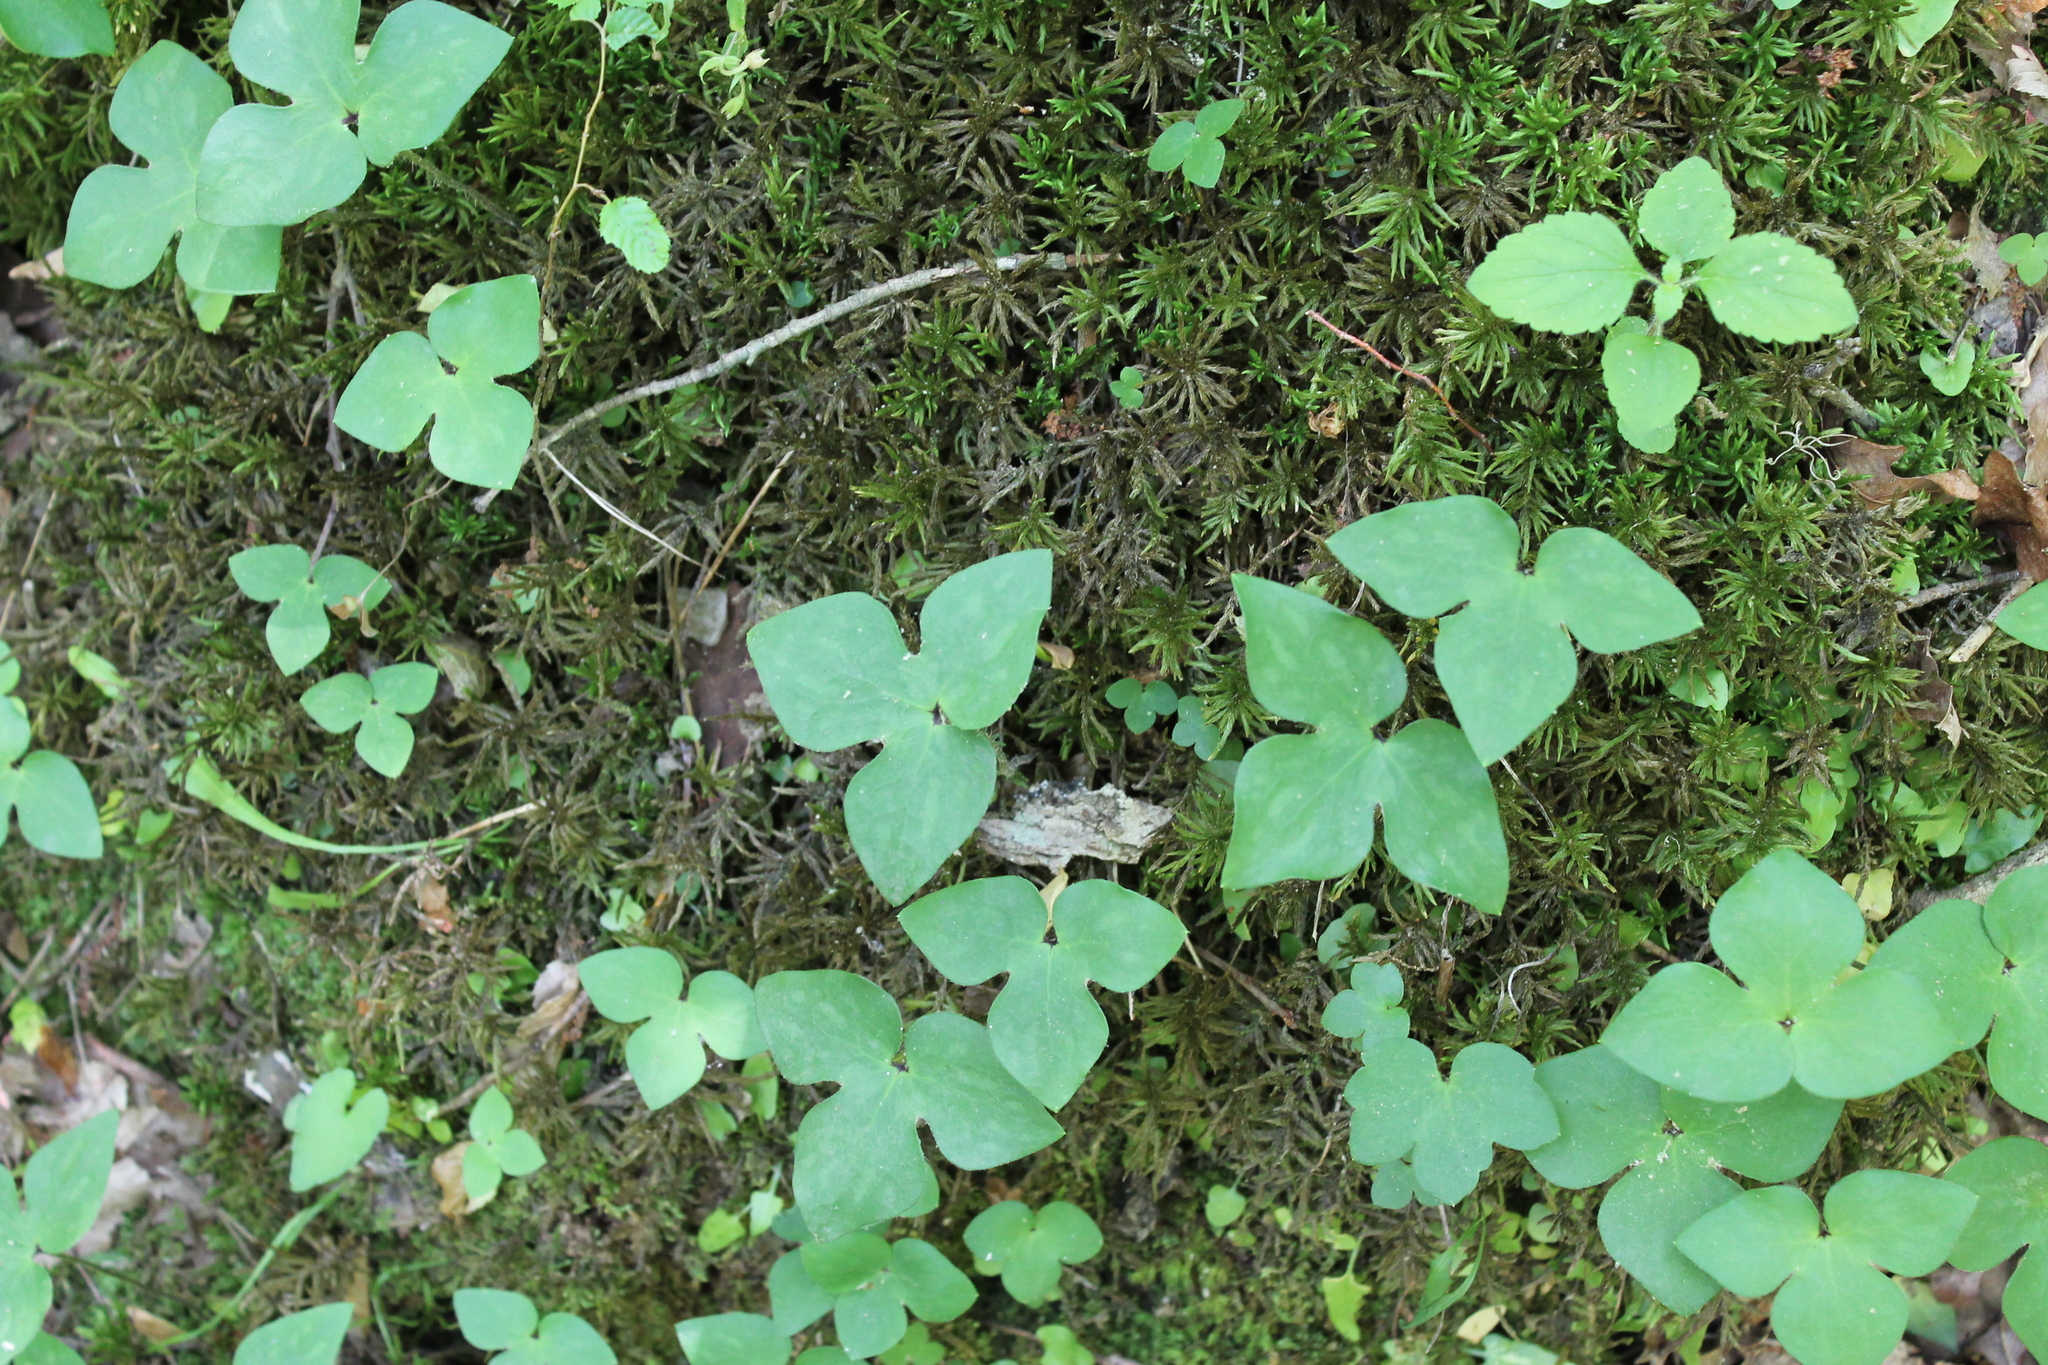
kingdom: Plantae
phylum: Tracheophyta
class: Magnoliopsida
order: Ranunculales
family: Ranunculaceae
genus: Hepatica
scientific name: Hepatica acutiloba
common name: Sharp-lobed hepatica
